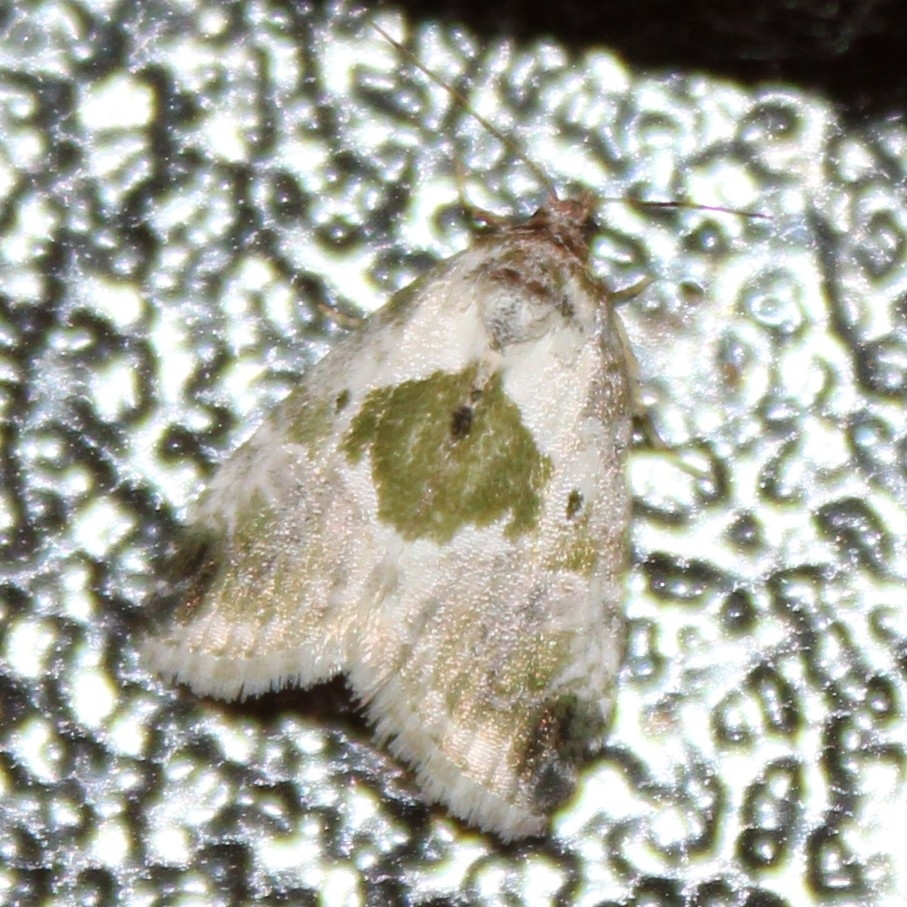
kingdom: Animalia
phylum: Arthropoda
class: Insecta
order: Lepidoptera
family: Noctuidae
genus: Maliattha
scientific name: Maliattha synochitis
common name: Black-dotted glyph
